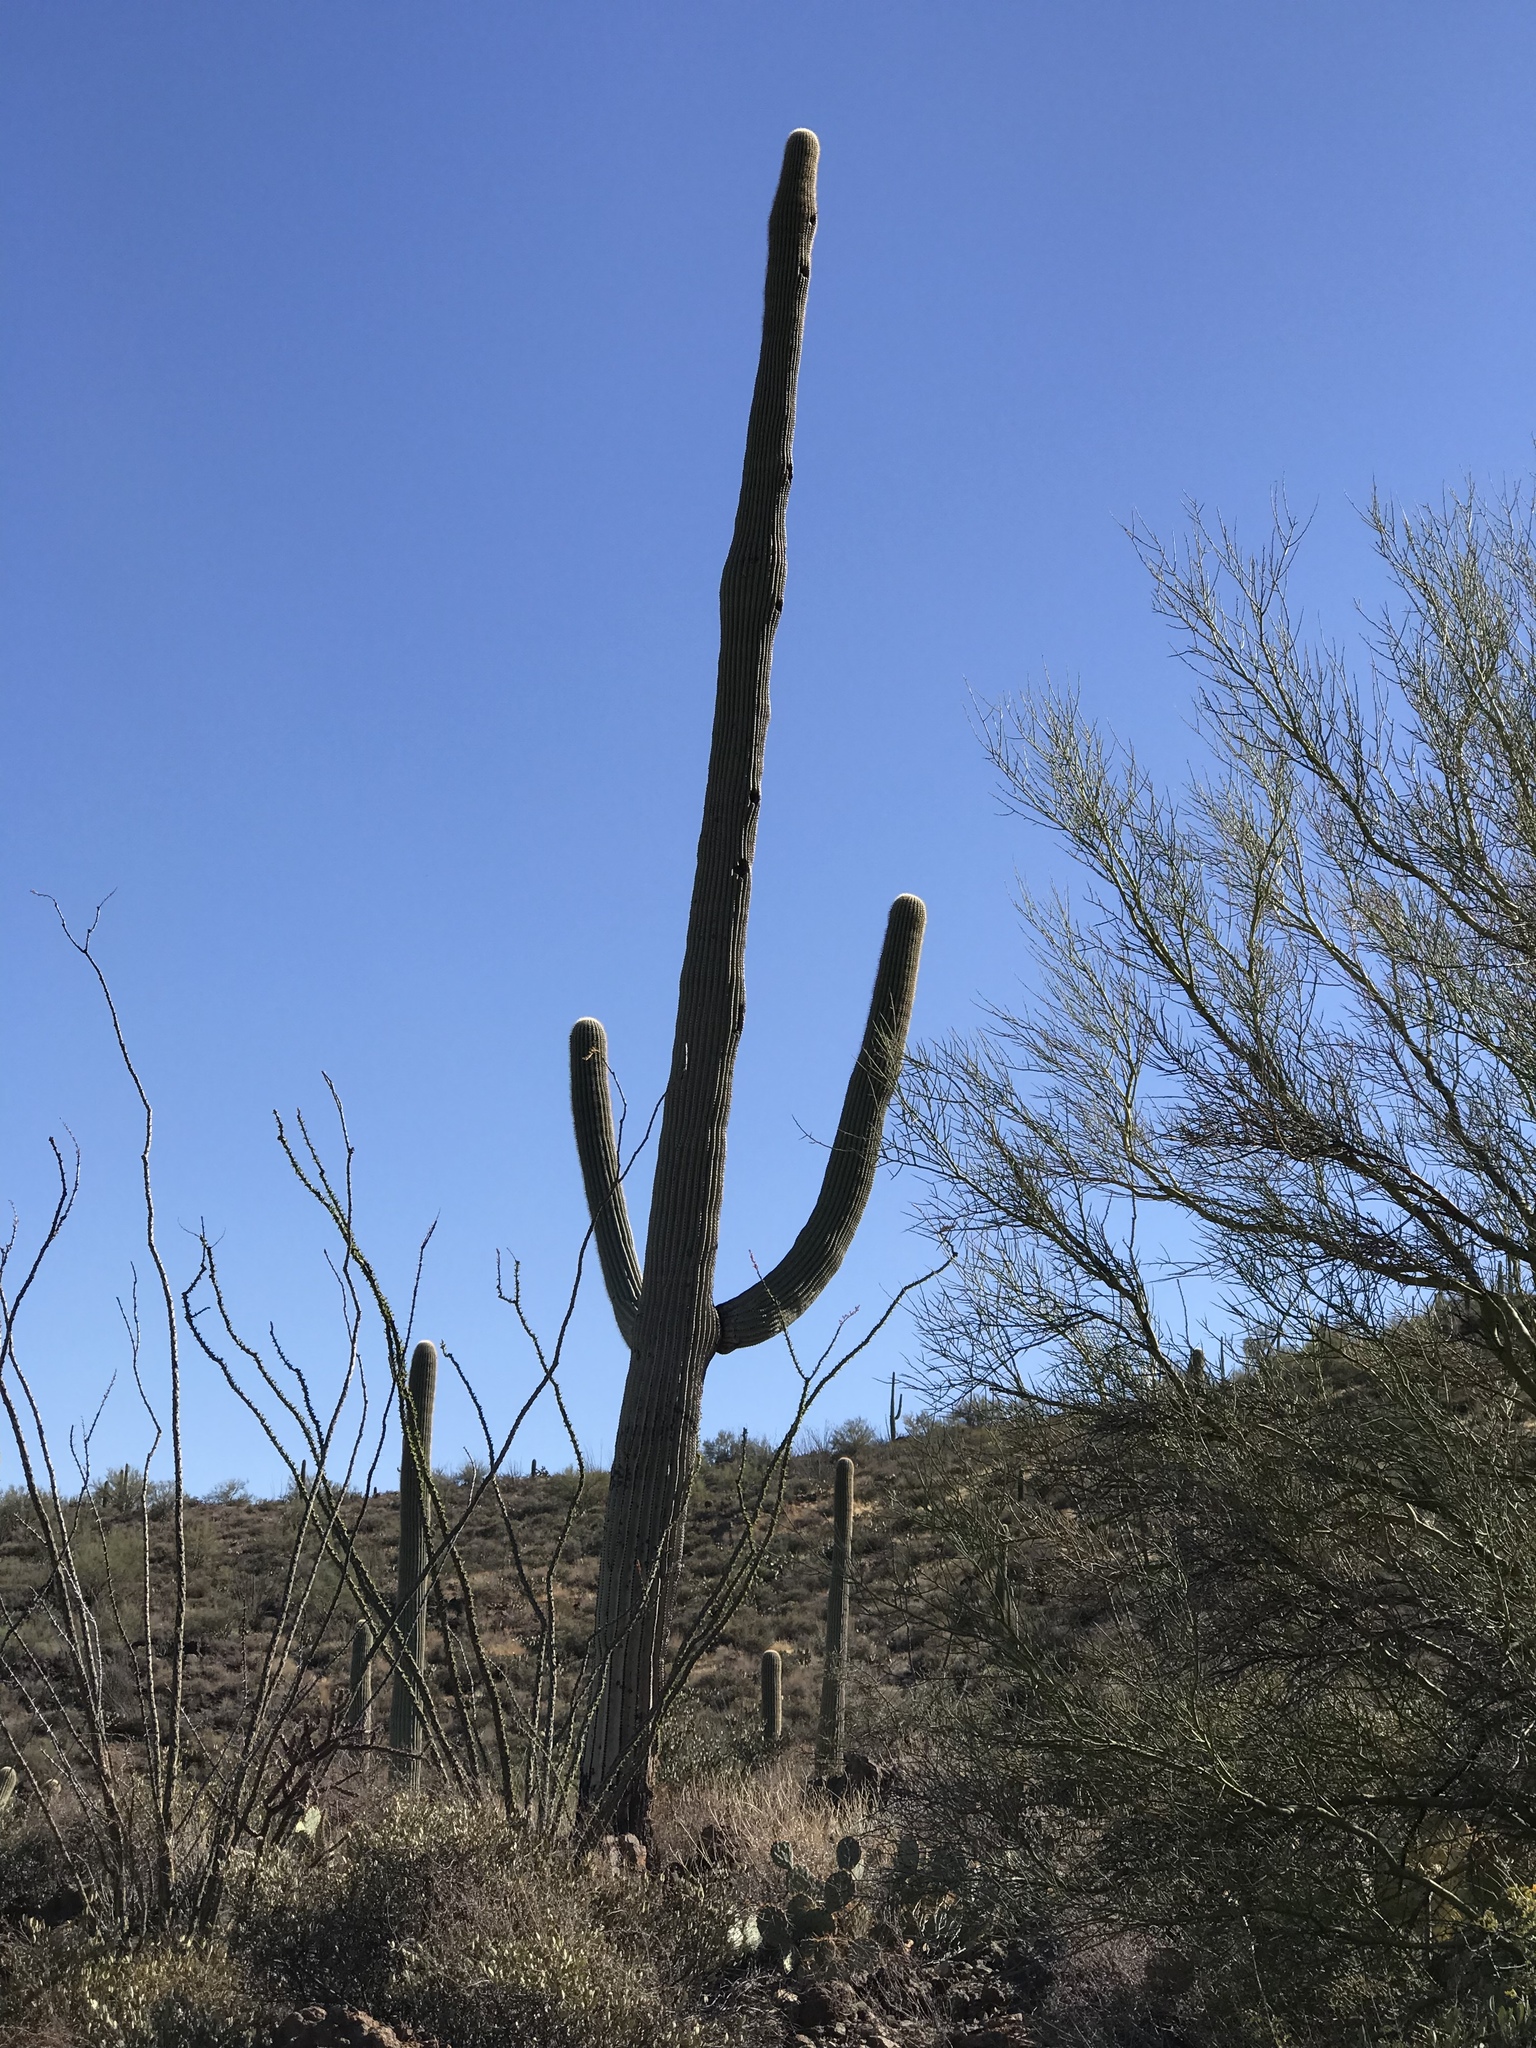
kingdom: Plantae
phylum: Tracheophyta
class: Magnoliopsida
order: Caryophyllales
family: Cactaceae
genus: Carnegiea
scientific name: Carnegiea gigantea
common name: Saguaro
